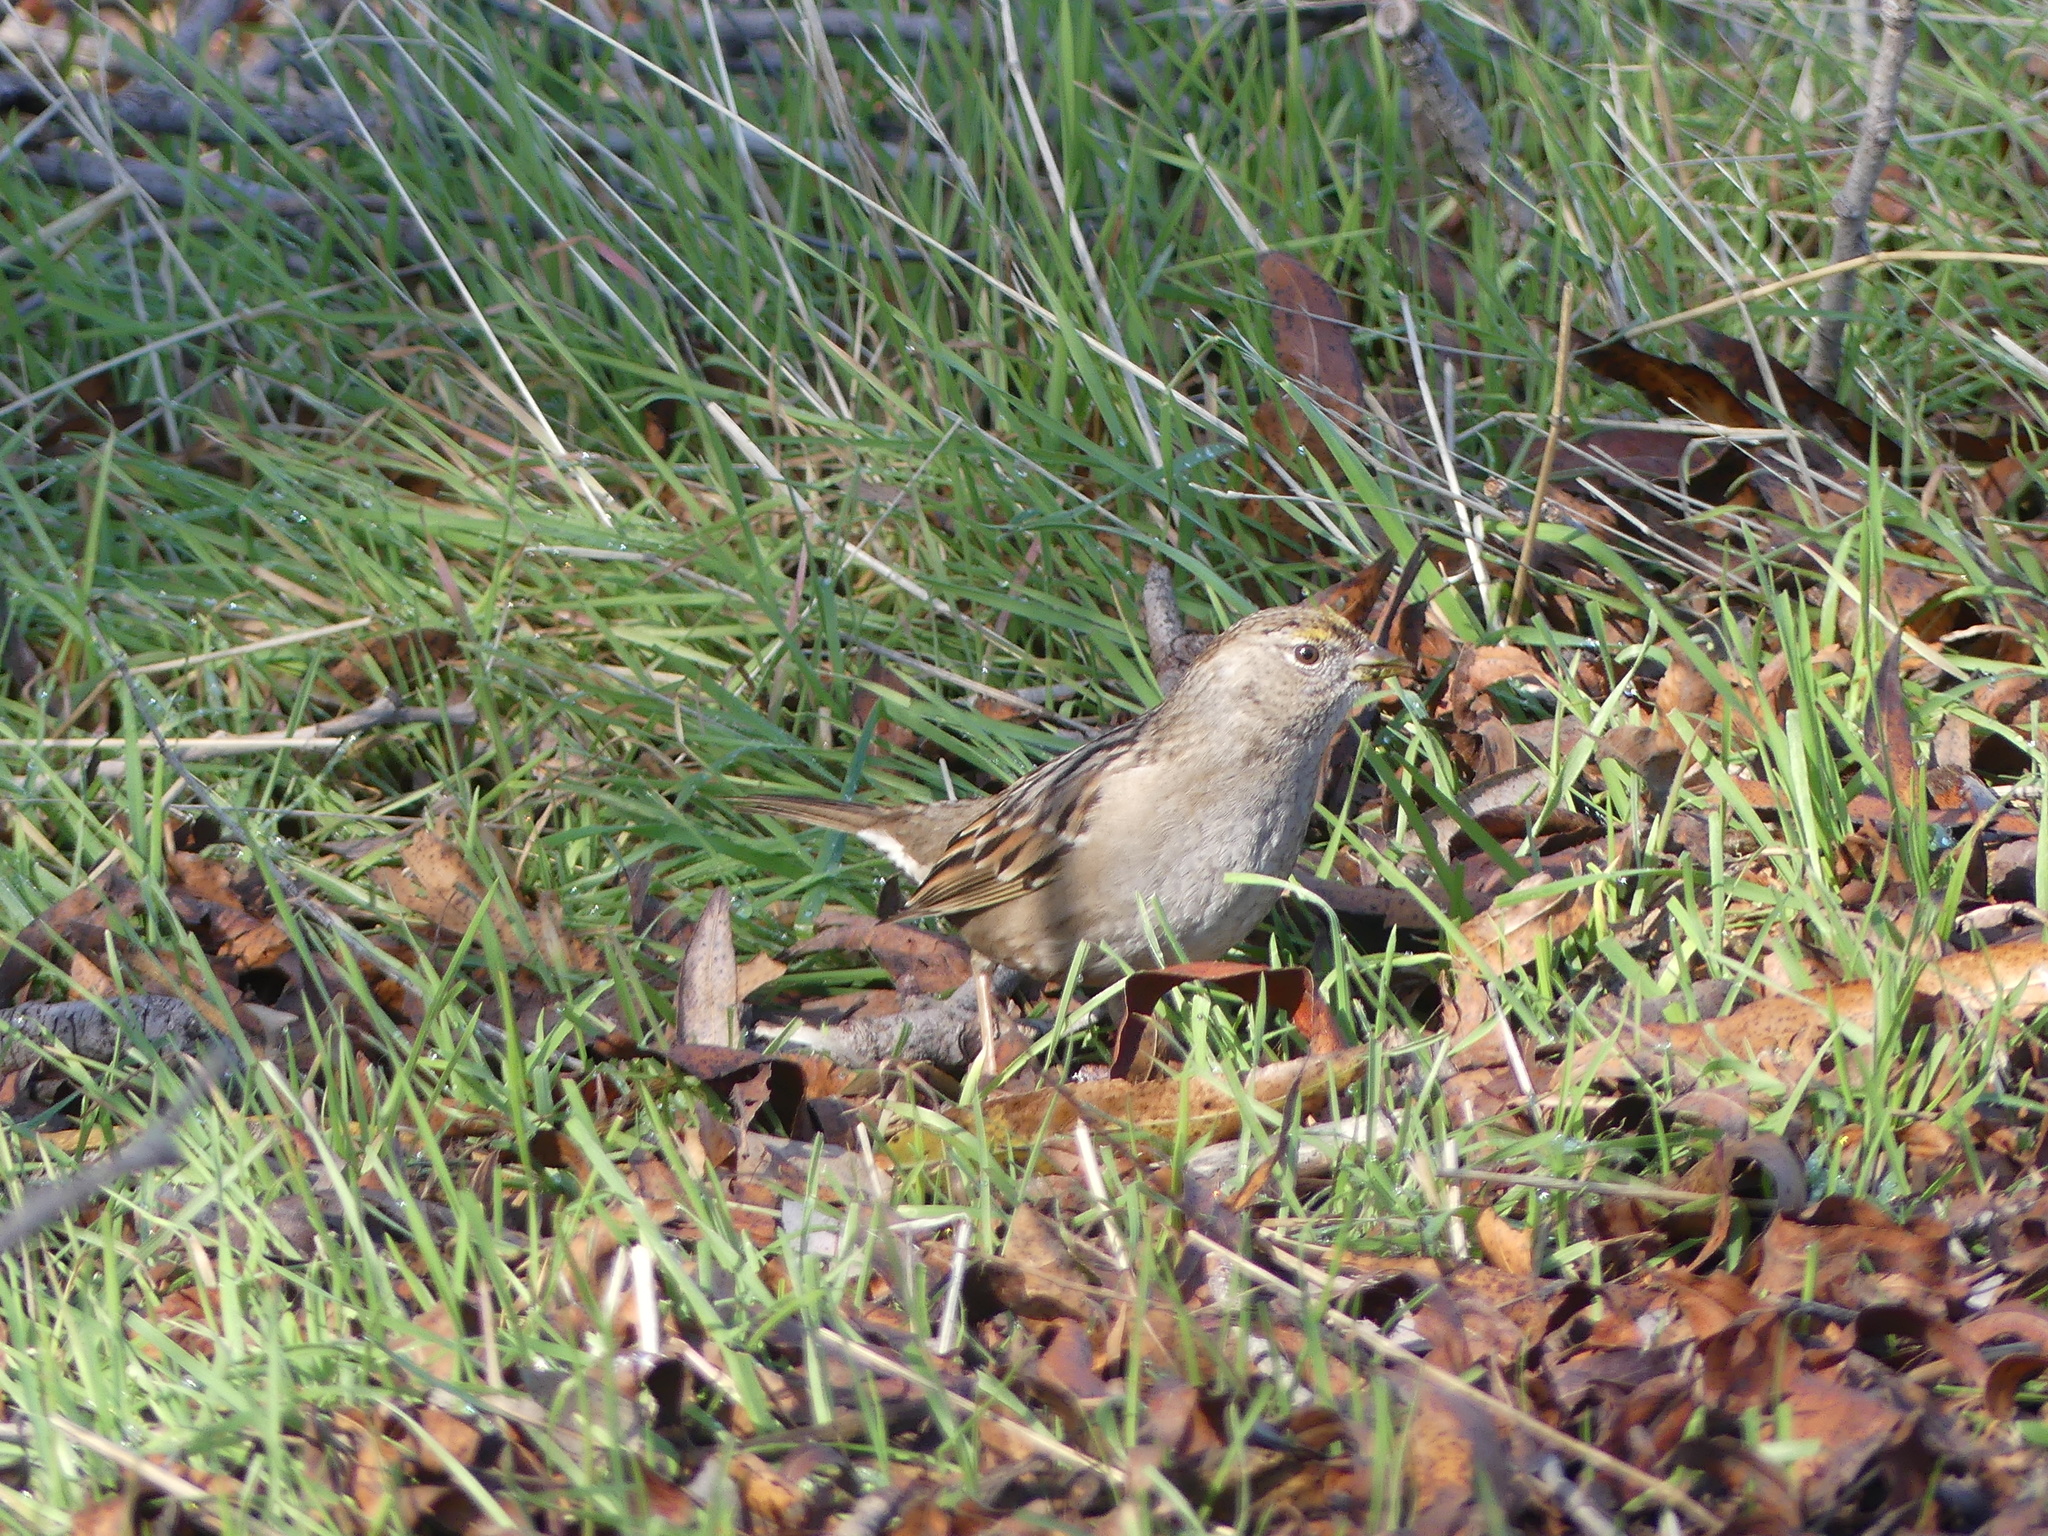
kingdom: Animalia
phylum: Chordata
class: Aves
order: Passeriformes
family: Passerellidae
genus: Zonotrichia
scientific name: Zonotrichia atricapilla
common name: Golden-crowned sparrow
